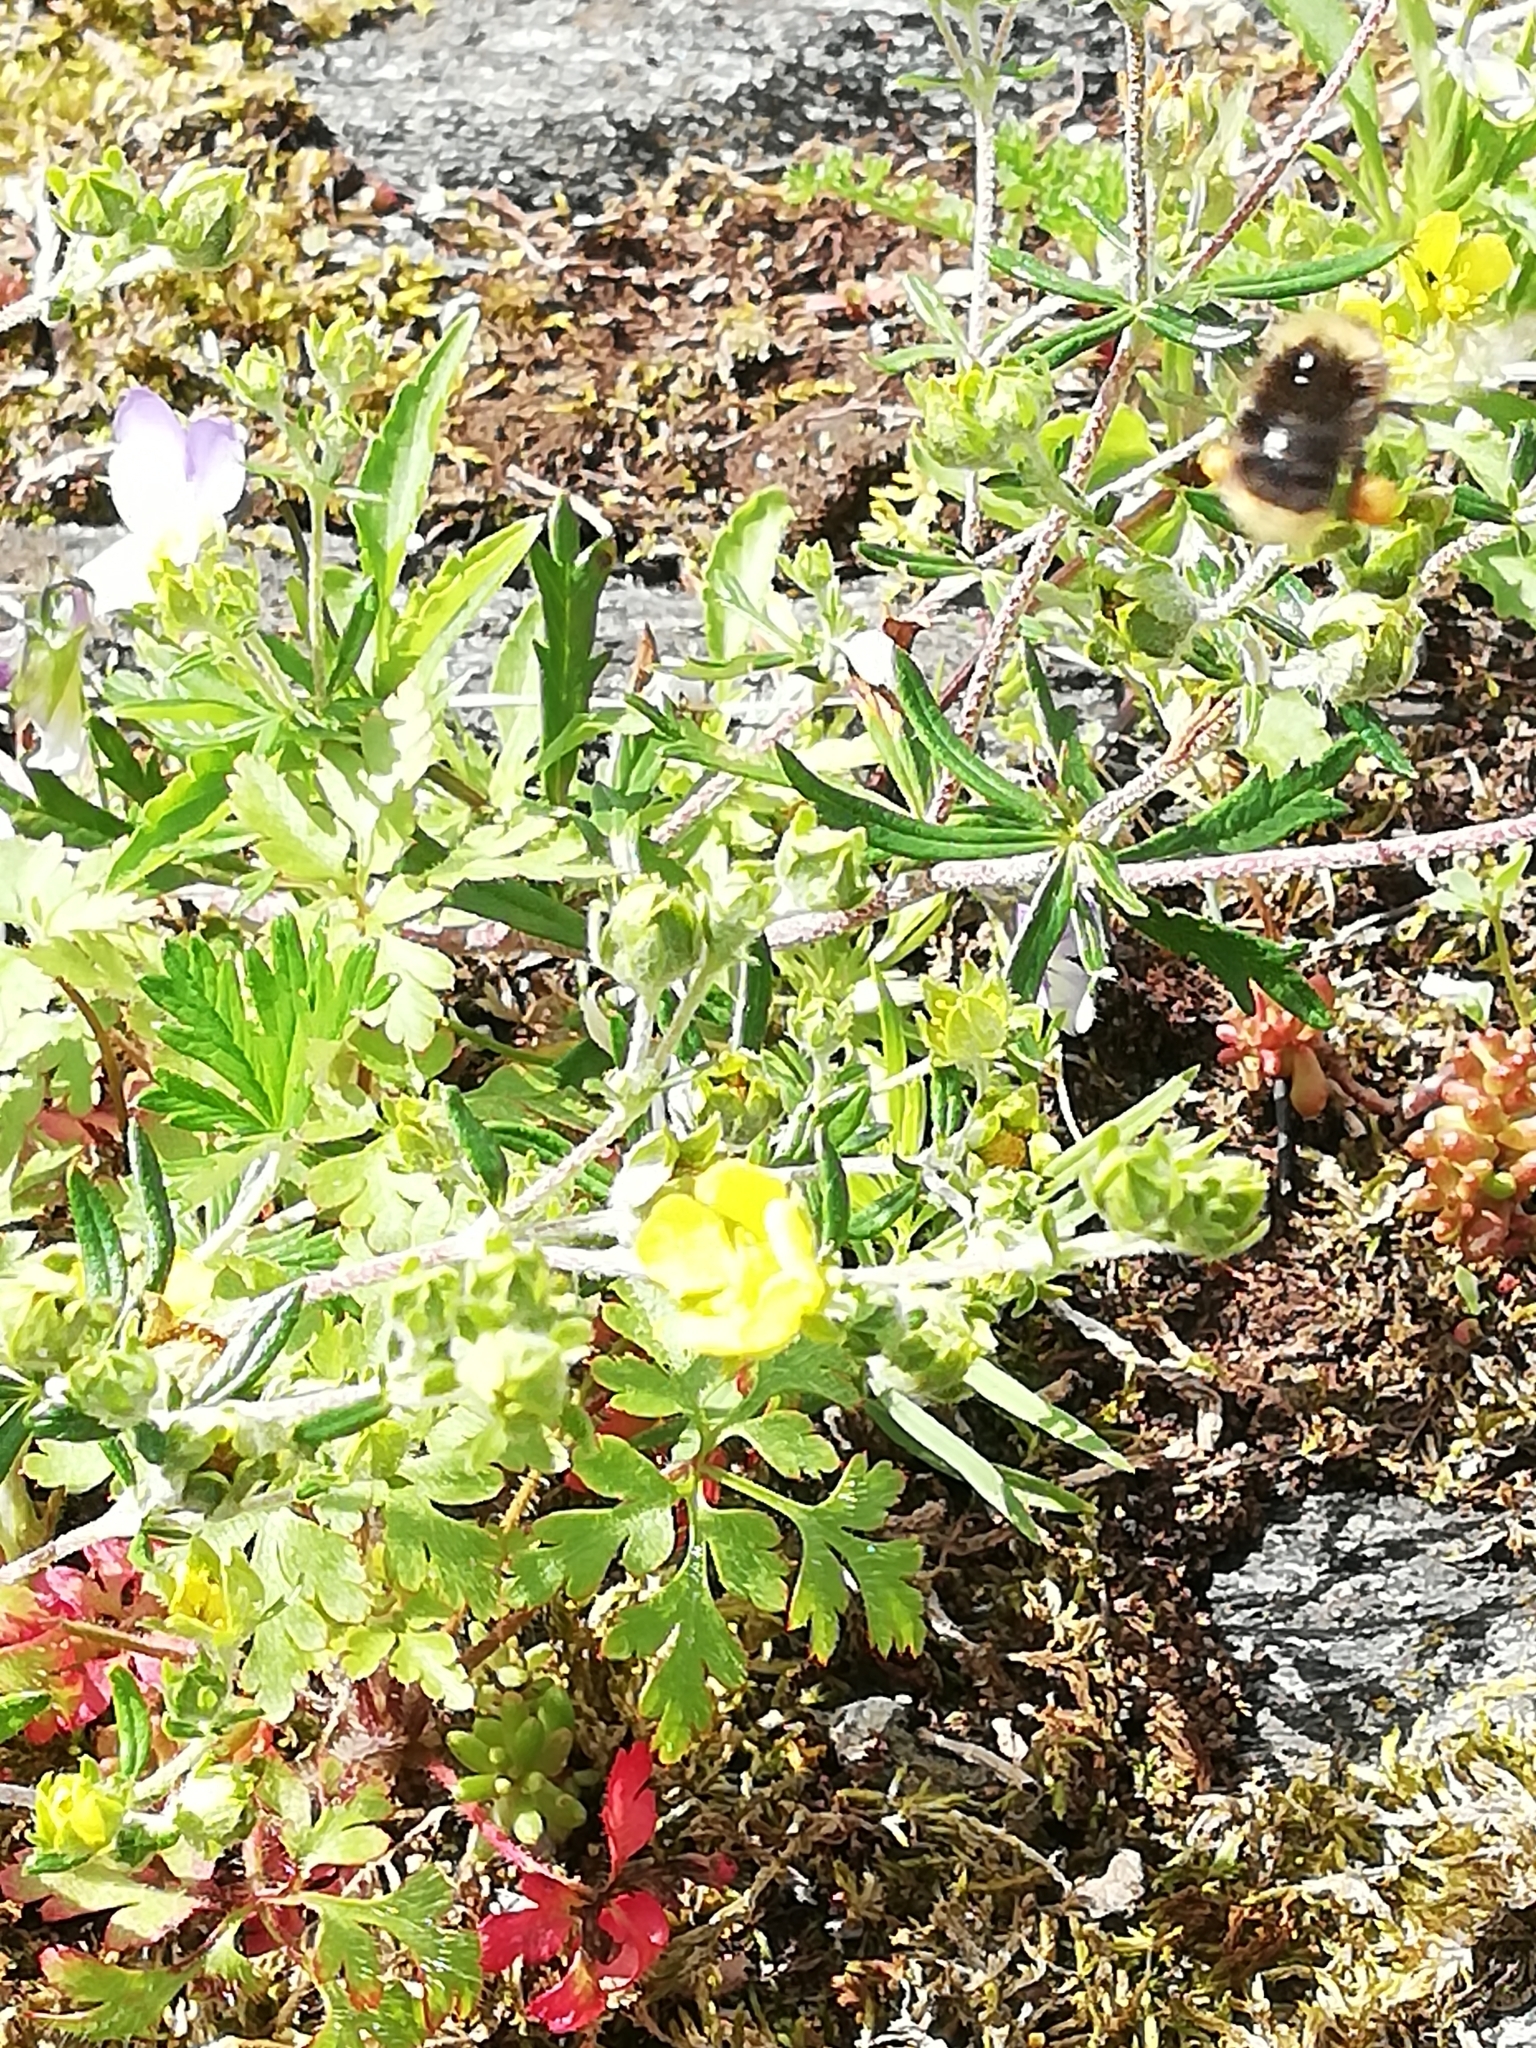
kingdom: Animalia
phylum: Arthropoda
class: Insecta
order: Hymenoptera
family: Apidae
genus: Bombus
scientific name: Bombus pratorum
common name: Early humble-bee
